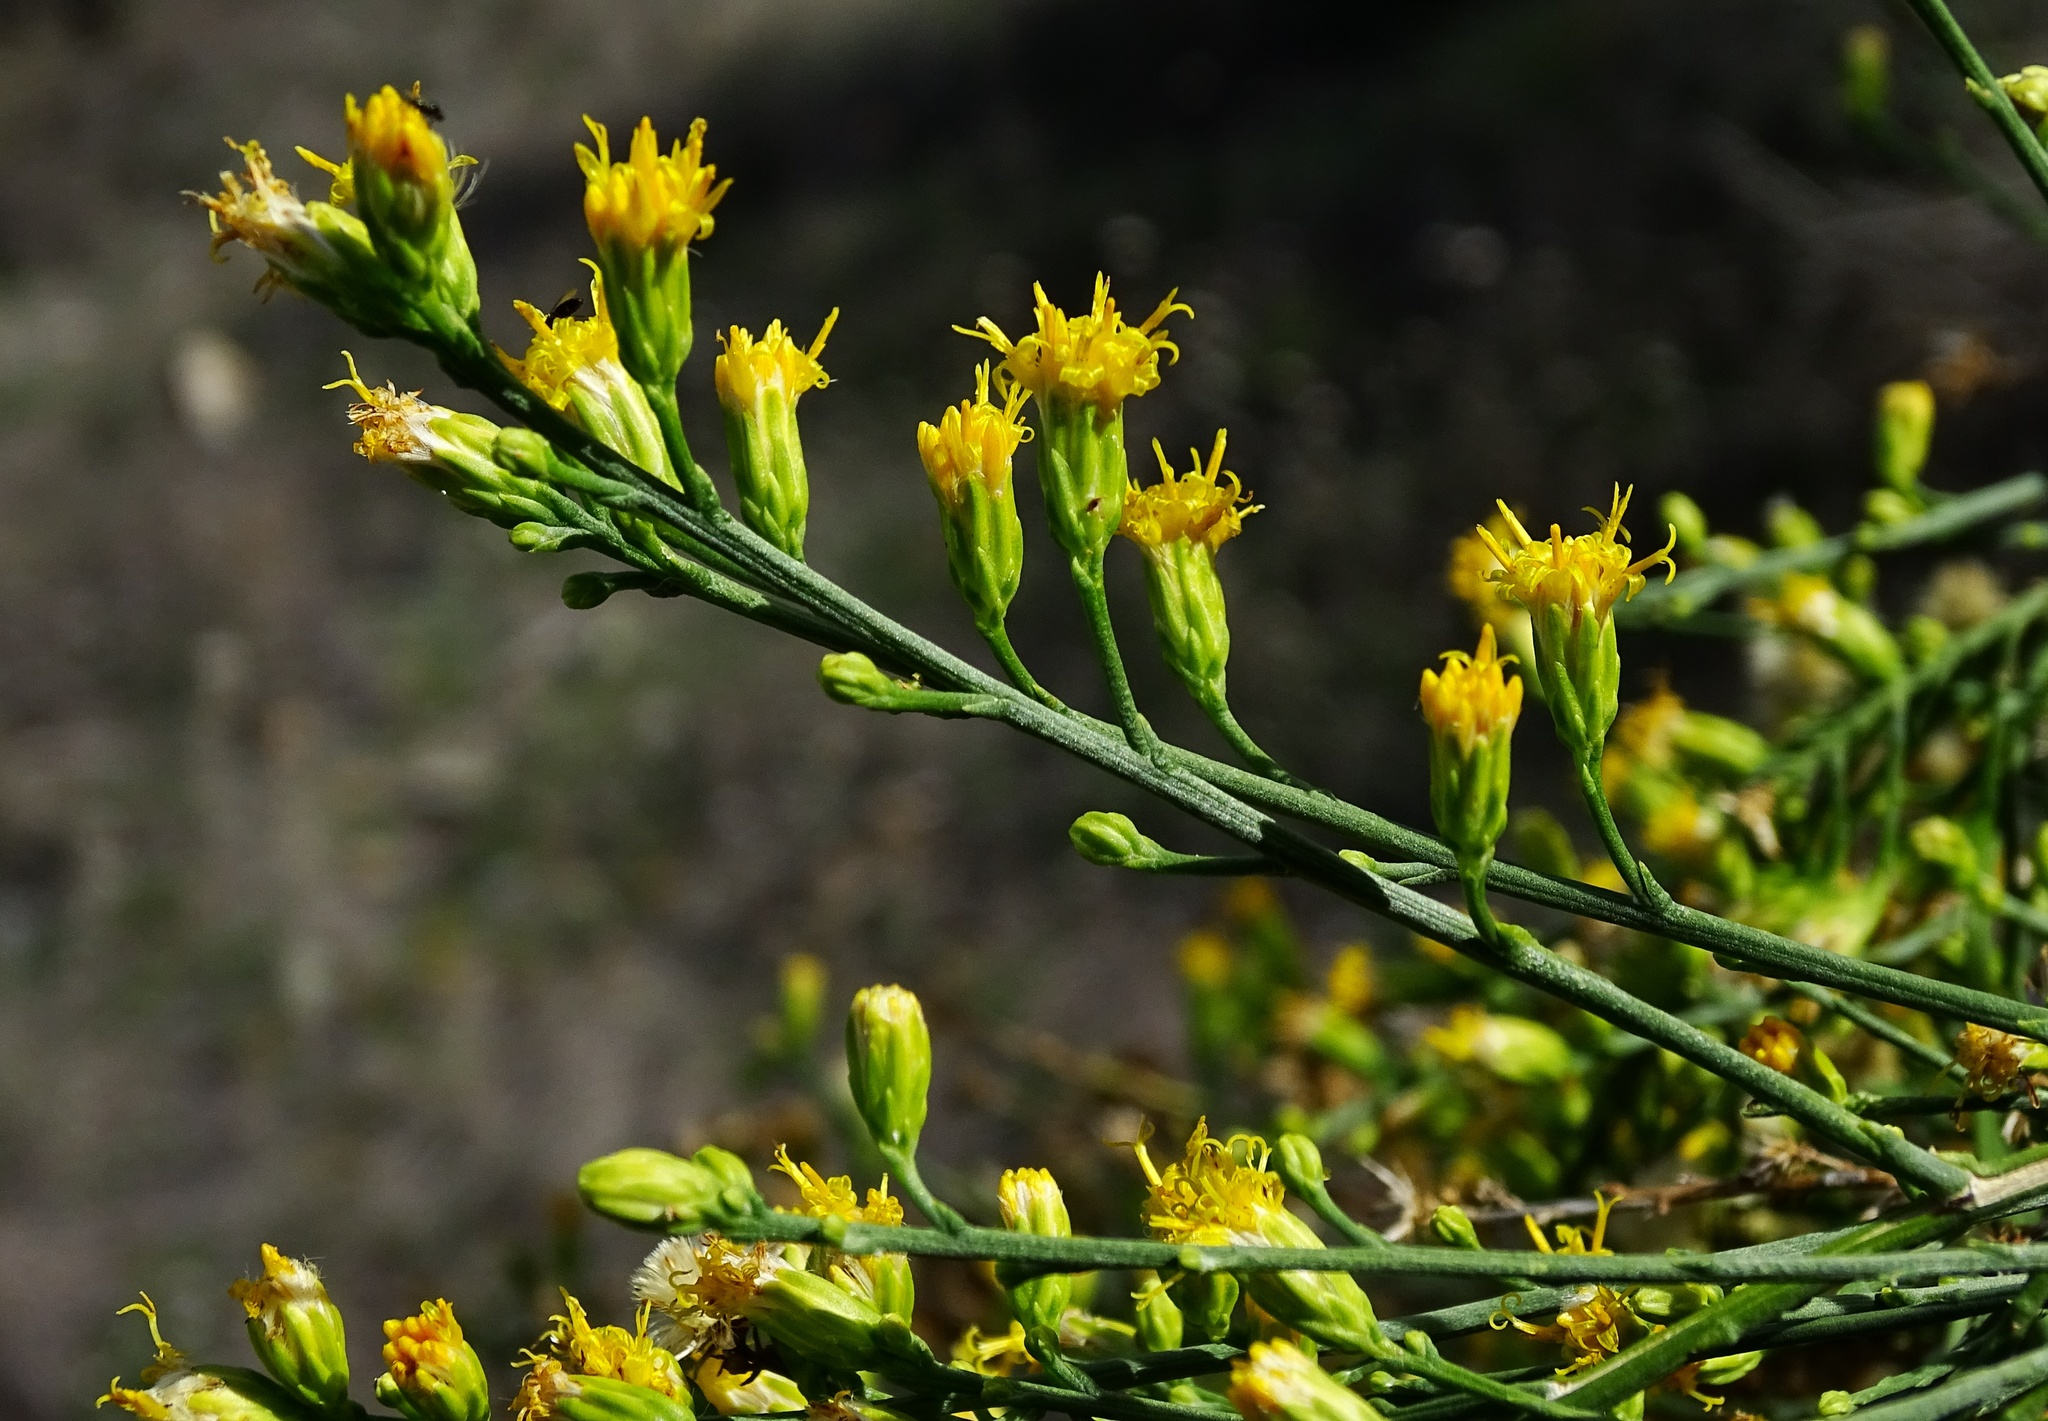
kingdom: Plantae
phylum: Tracheophyta
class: Magnoliopsida
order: Asterales
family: Asteraceae
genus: Lepidospartum
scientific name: Lepidospartum squamatum
